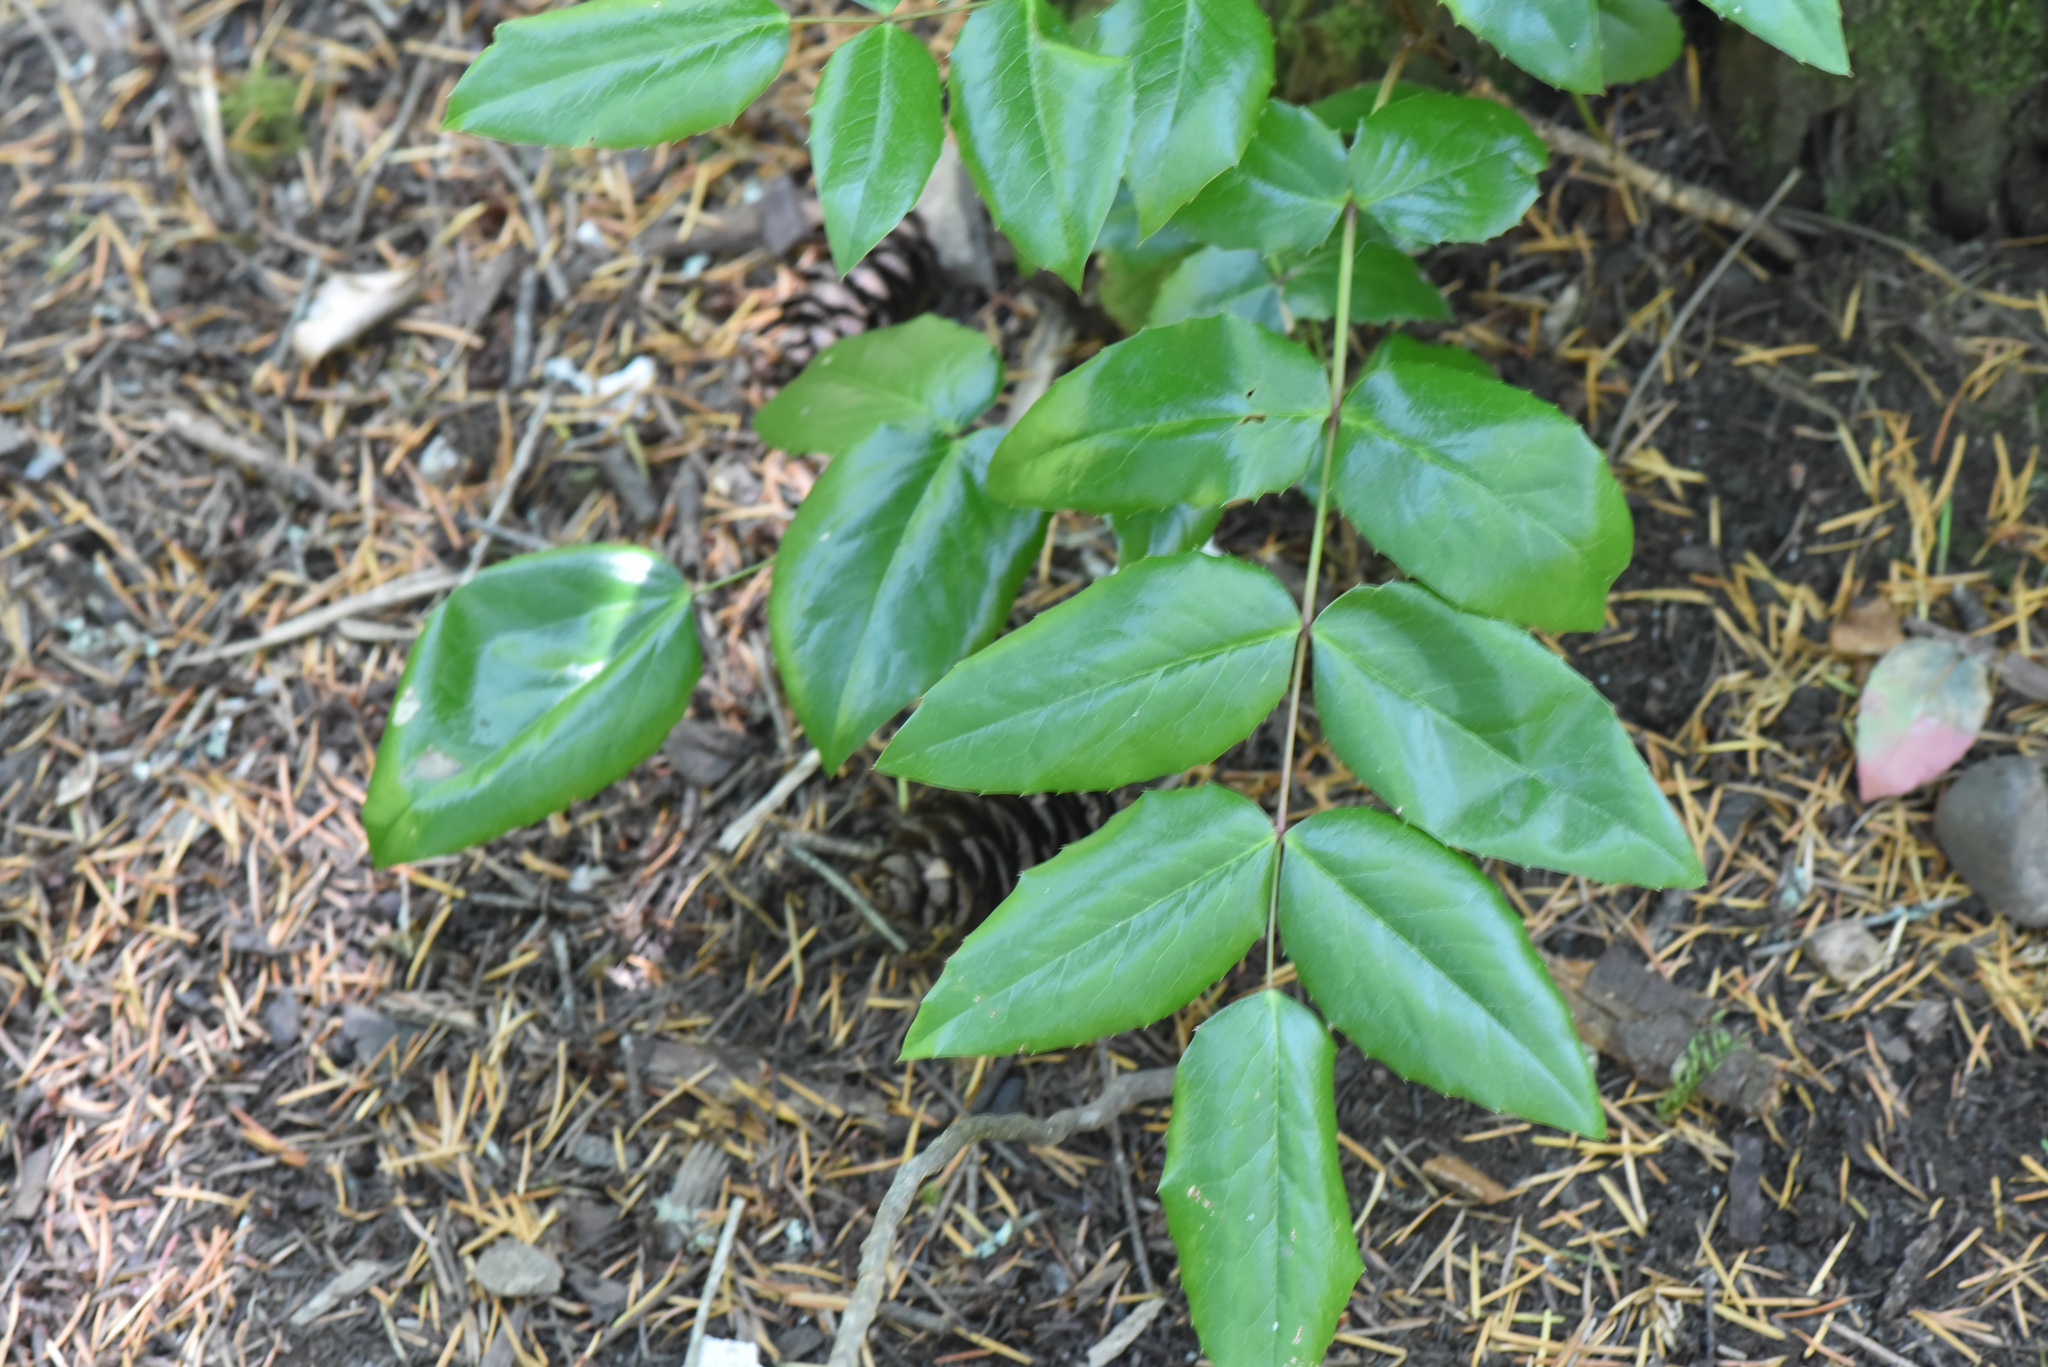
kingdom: Plantae
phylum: Tracheophyta
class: Magnoliopsida
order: Ranunculales
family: Berberidaceae
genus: Mahonia
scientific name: Mahonia aquifolium
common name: Oregon-grape
